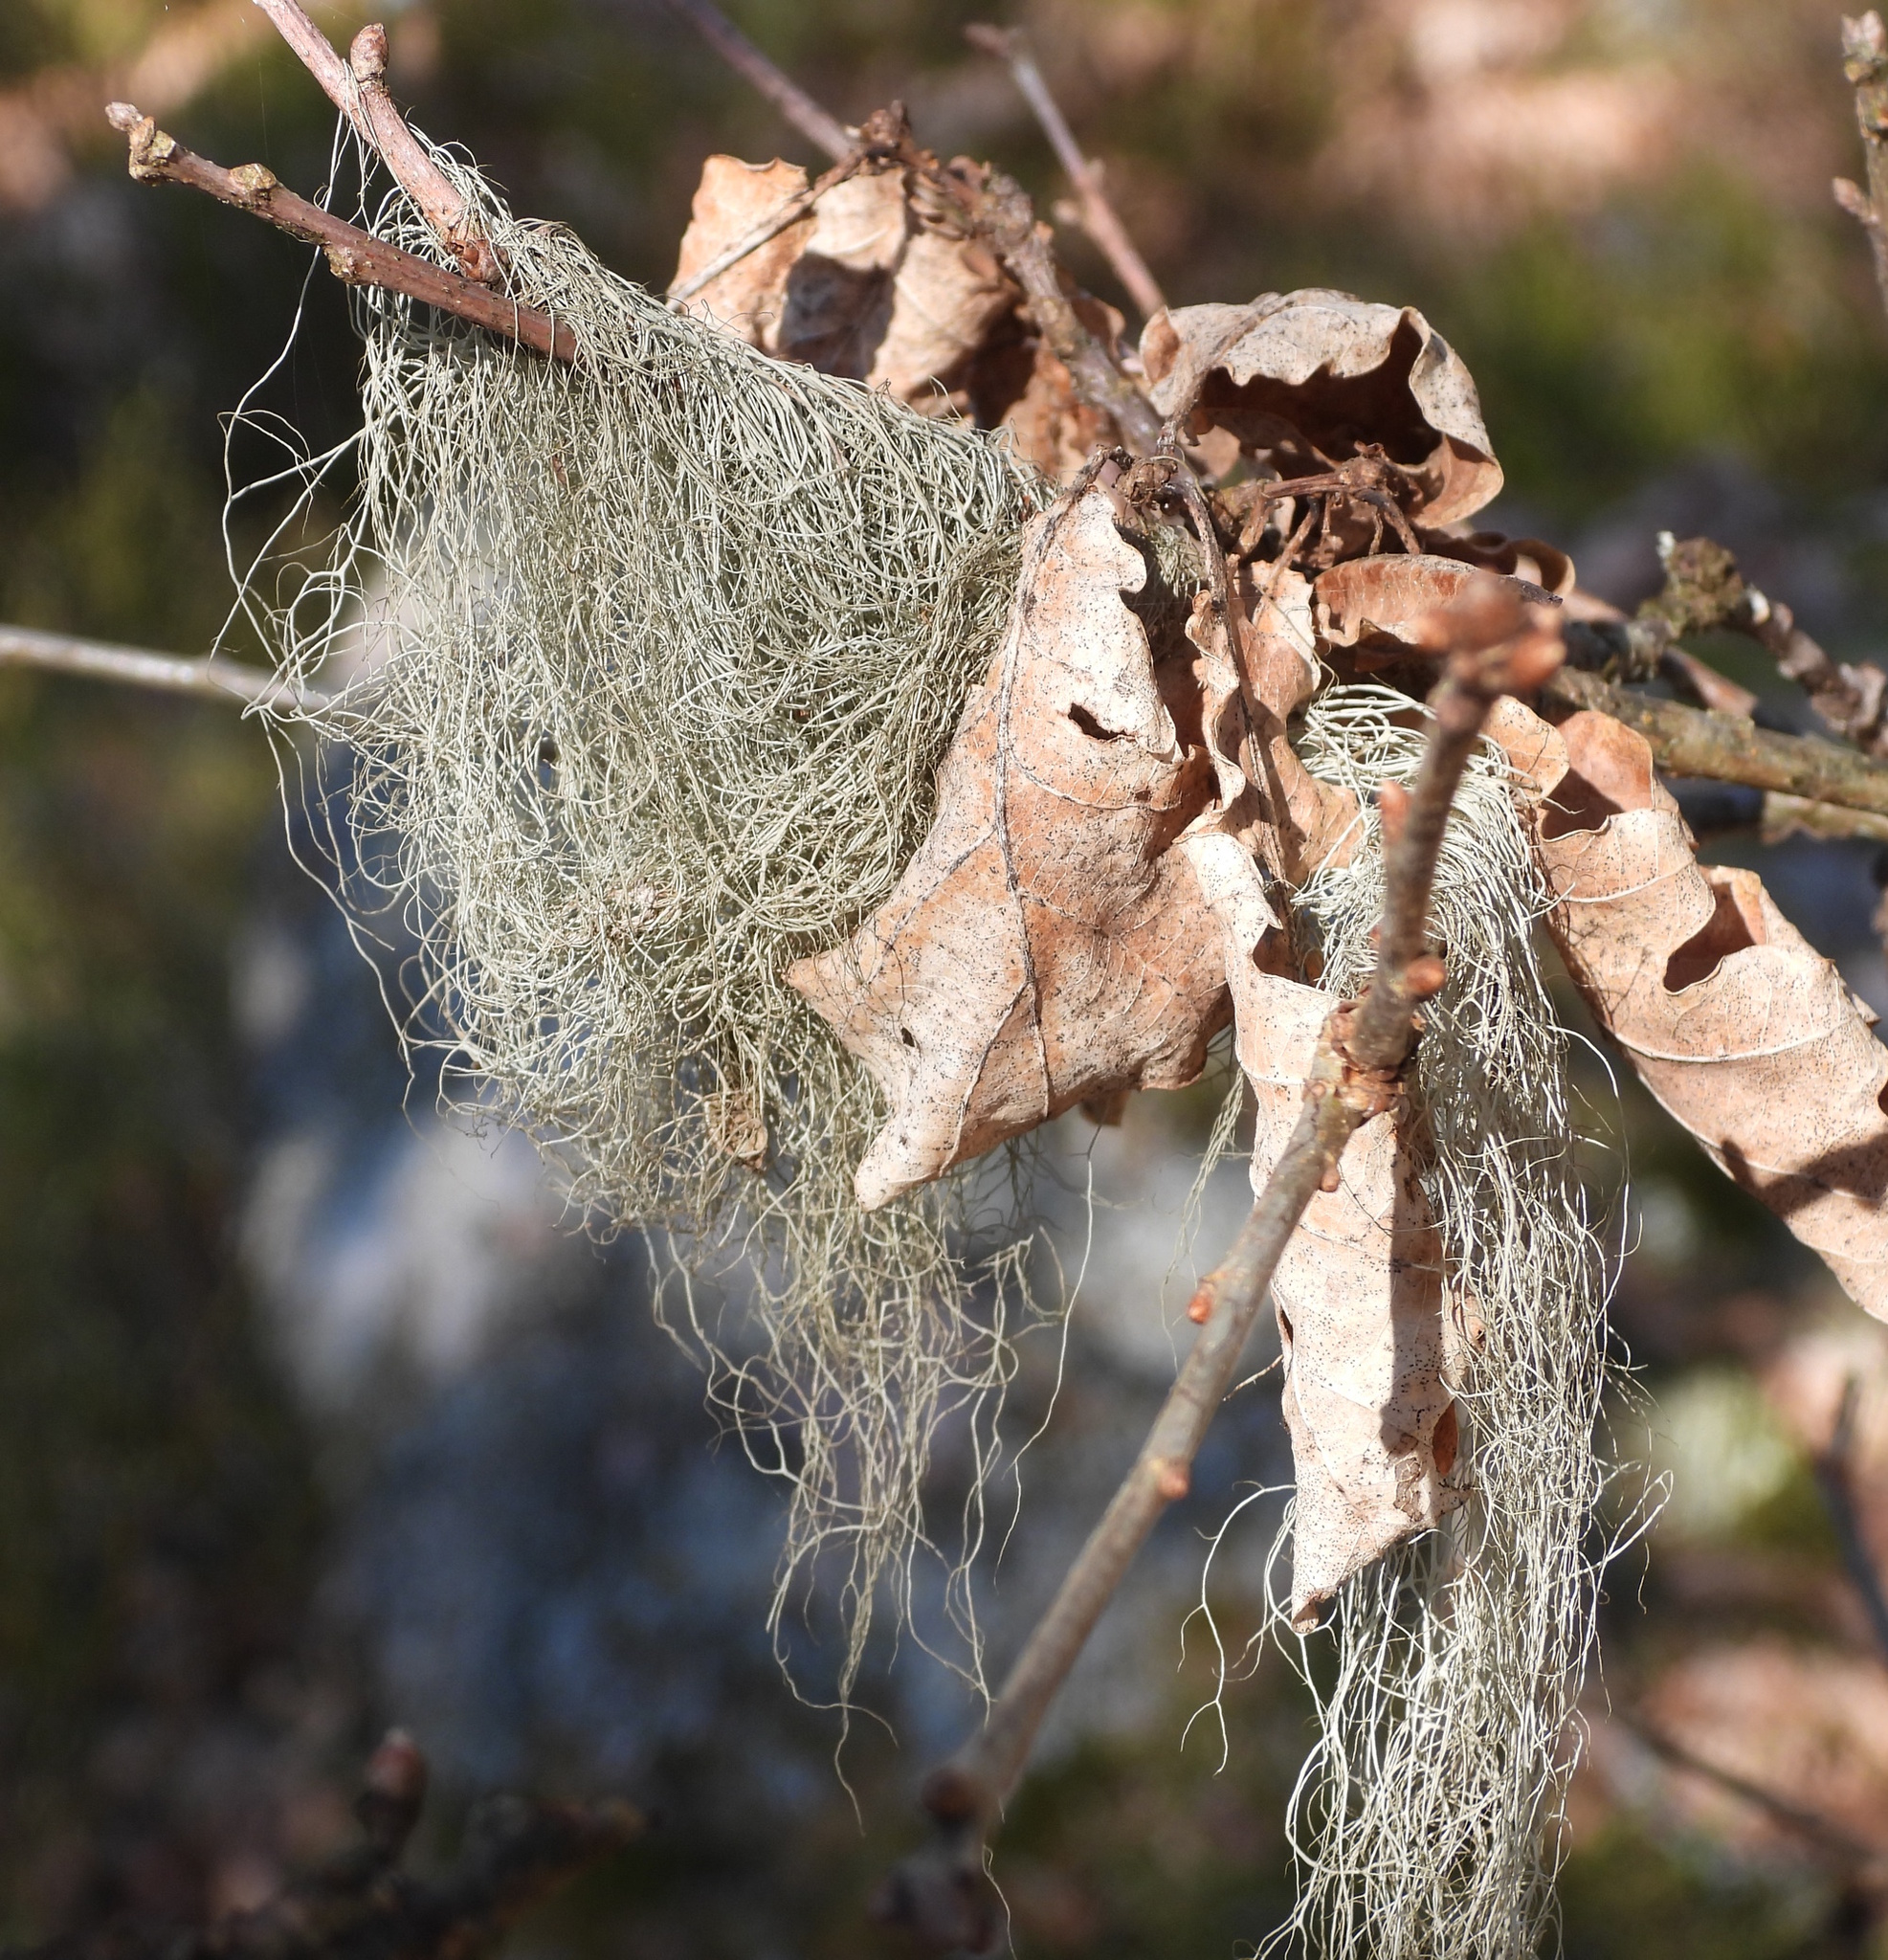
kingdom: Fungi
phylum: Ascomycota
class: Lecanoromycetes
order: Lecanorales
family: Parmeliaceae
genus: Bryoria
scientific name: Bryoria fuscescens
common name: Pale-footed horsehair lichen
